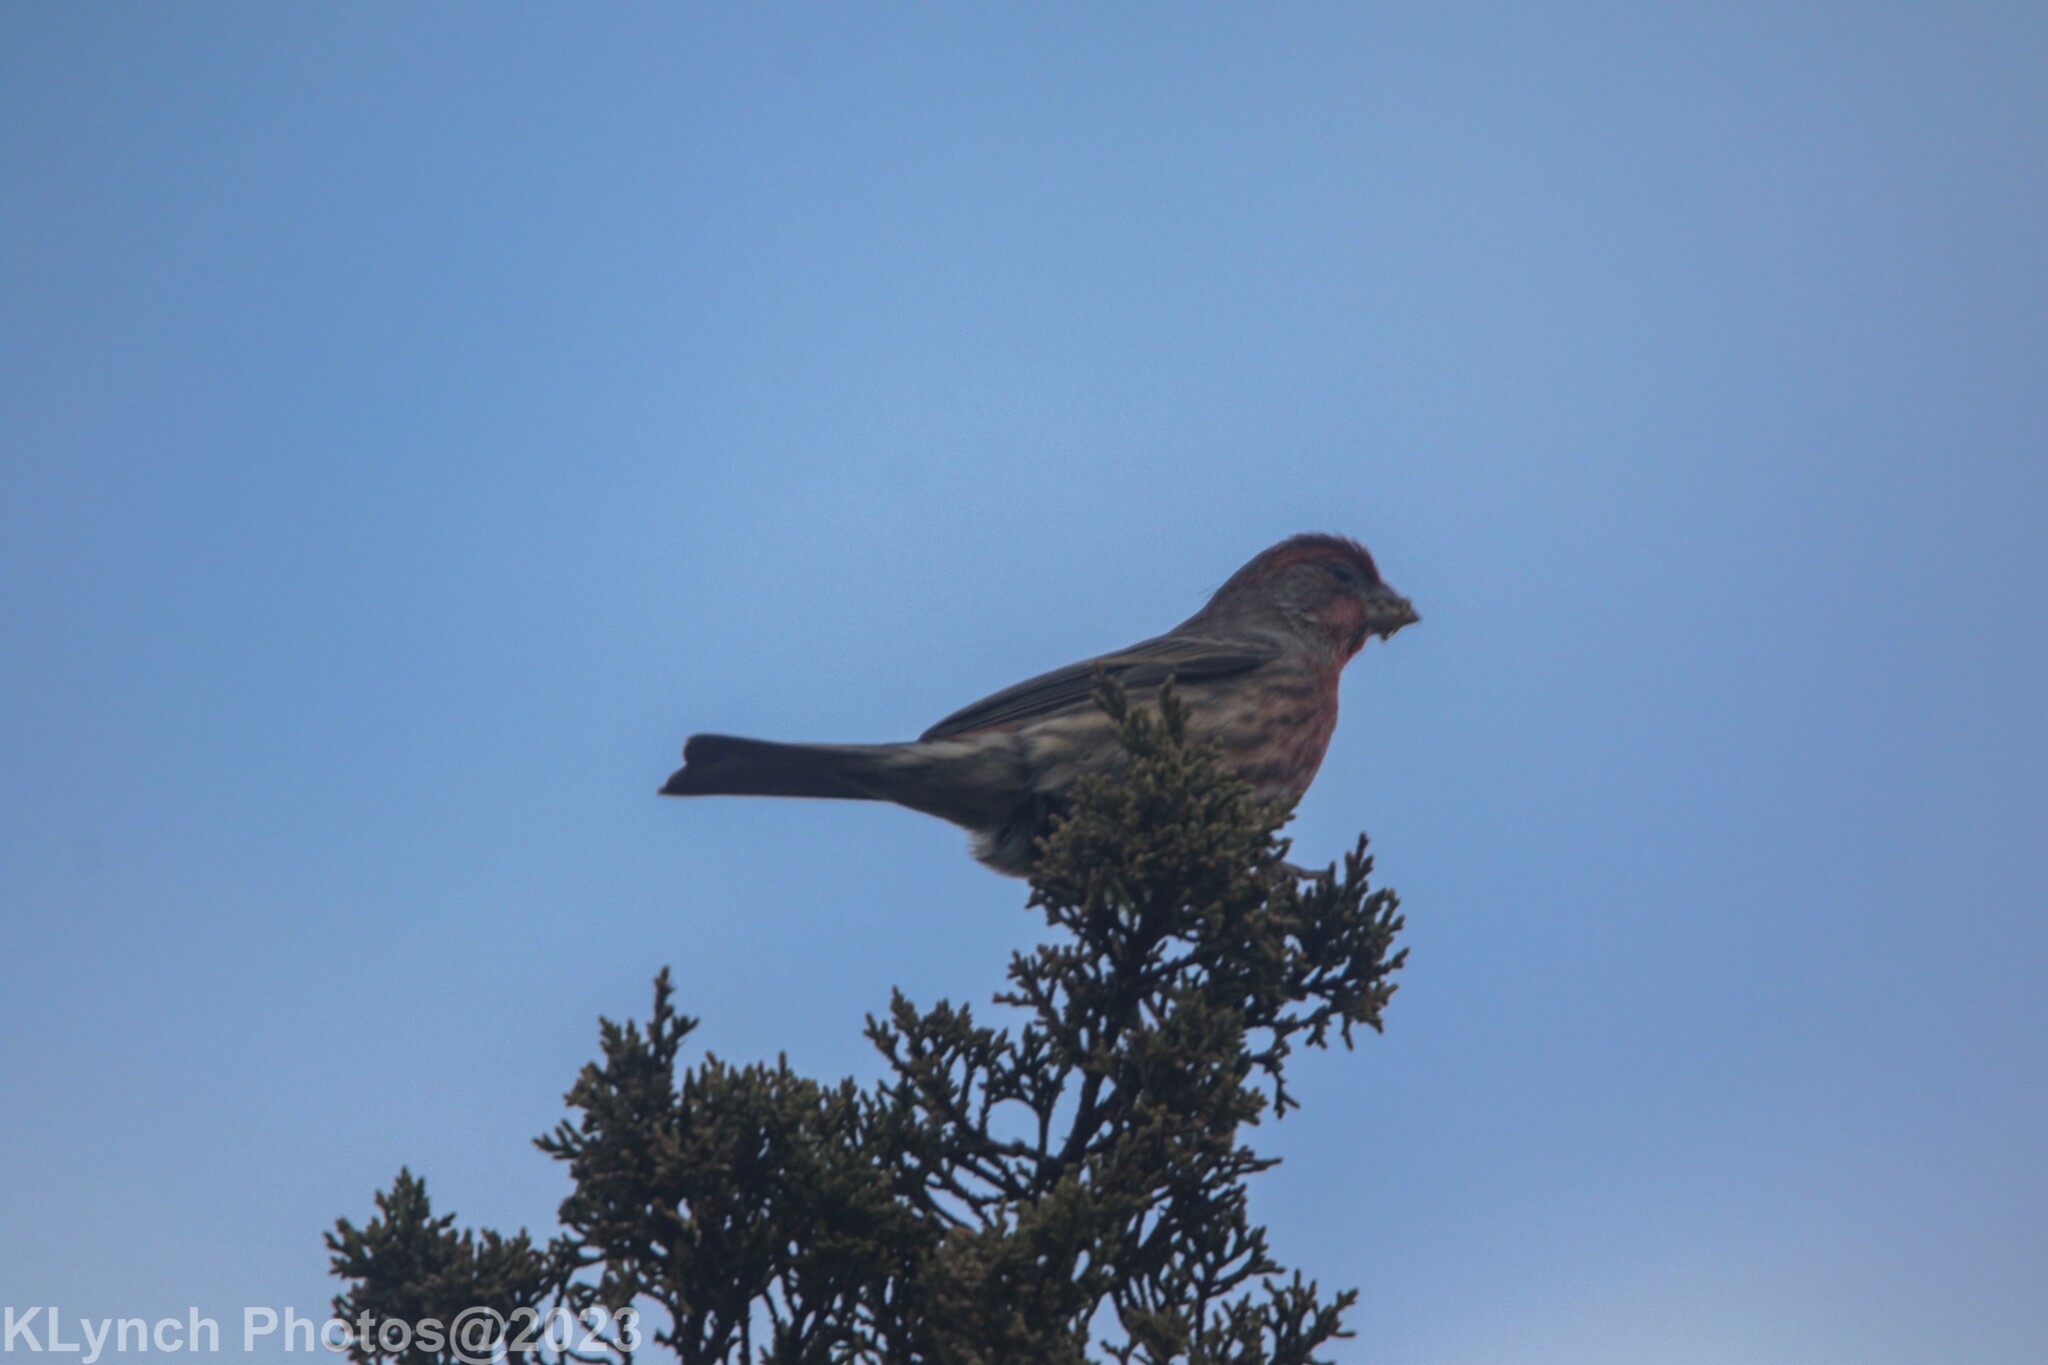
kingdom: Animalia
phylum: Chordata
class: Aves
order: Passeriformes
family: Fringillidae
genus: Haemorhous
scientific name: Haemorhous mexicanus
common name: House finch
